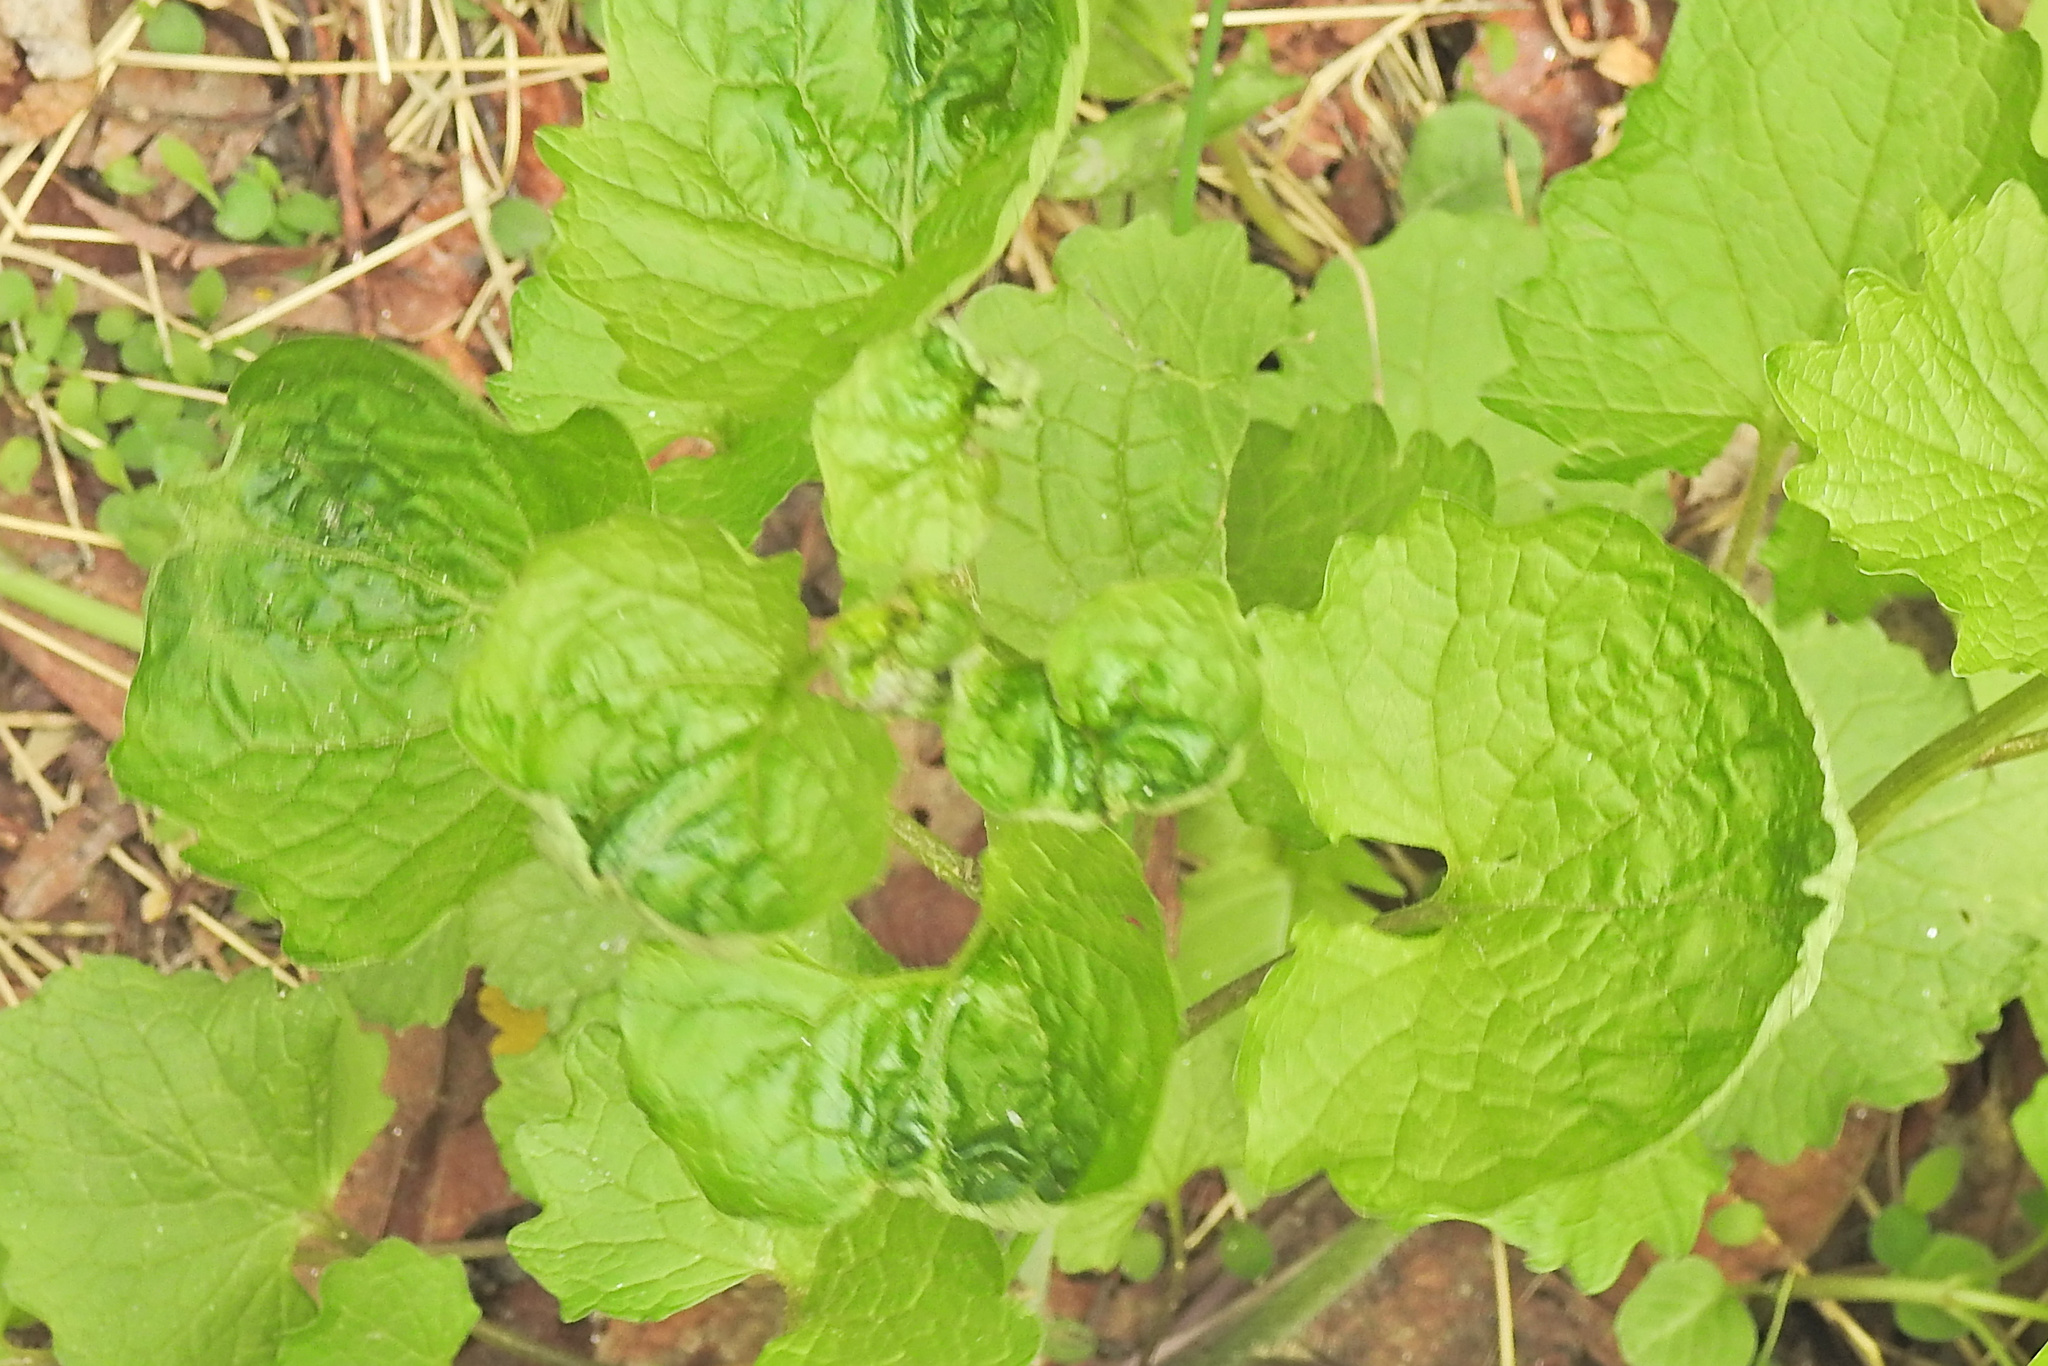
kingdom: Viruses
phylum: Kitrinoviricota
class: Tolucaviricetes
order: Tolivirales
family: Tombusviridae
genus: Betacarmovirus
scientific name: Betacarmovirus brassicae
